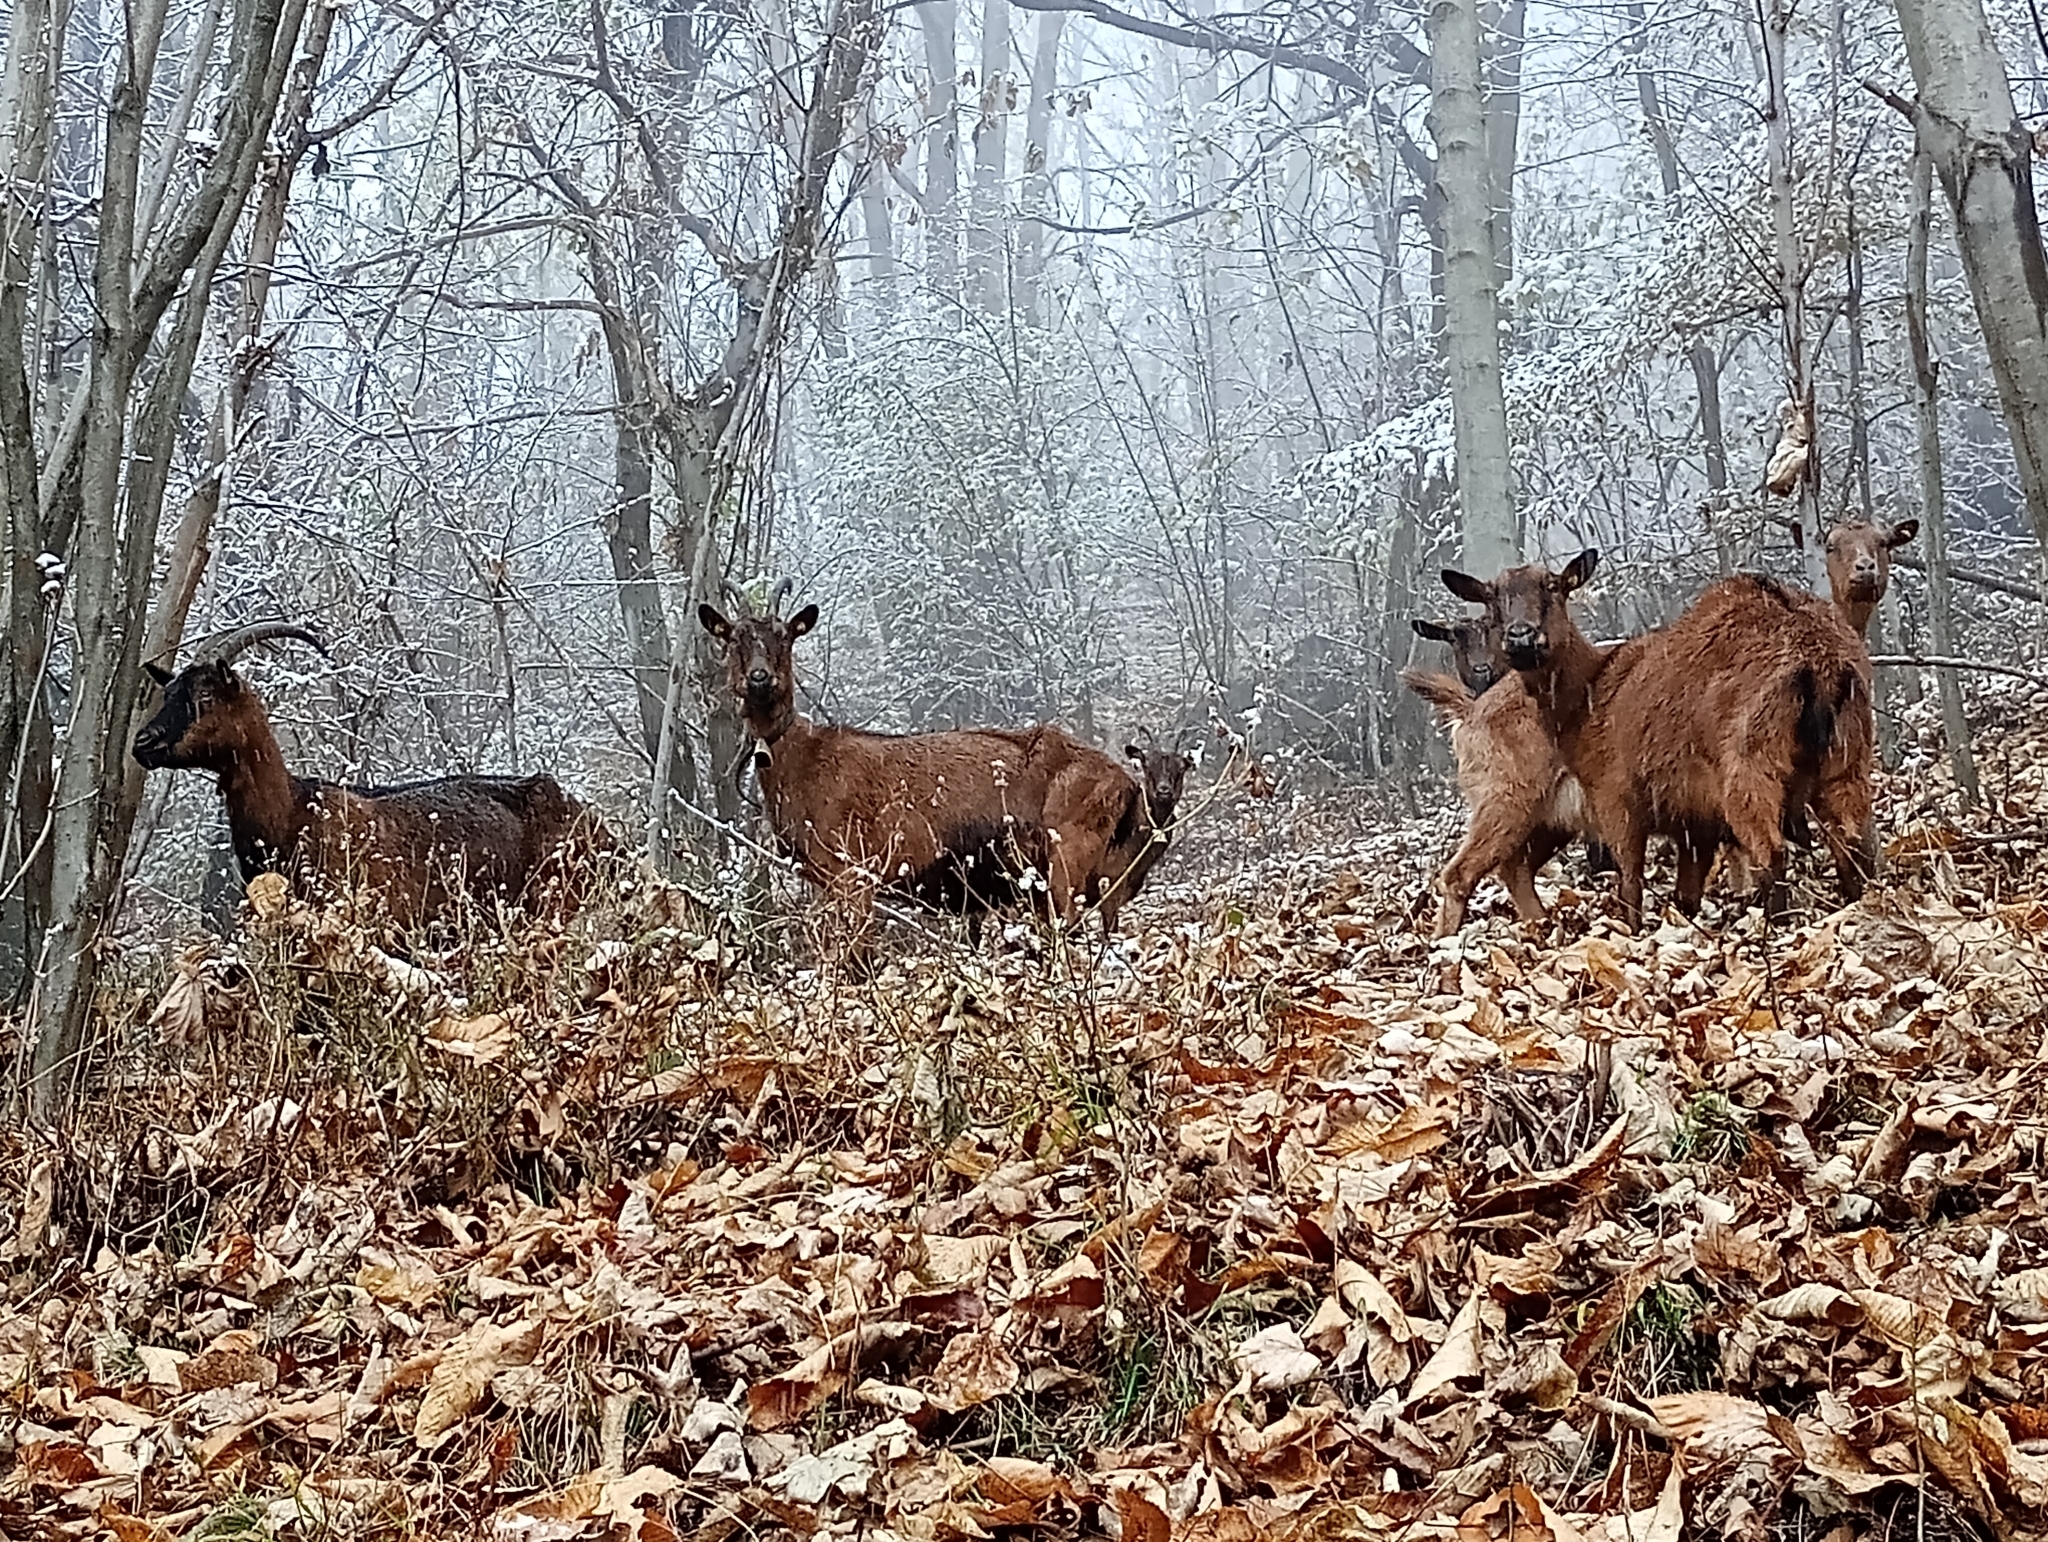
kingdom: Animalia
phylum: Chordata
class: Mammalia
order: Artiodactyla
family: Bovidae
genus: Capra
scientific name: Capra hircus
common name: Domestic goat
